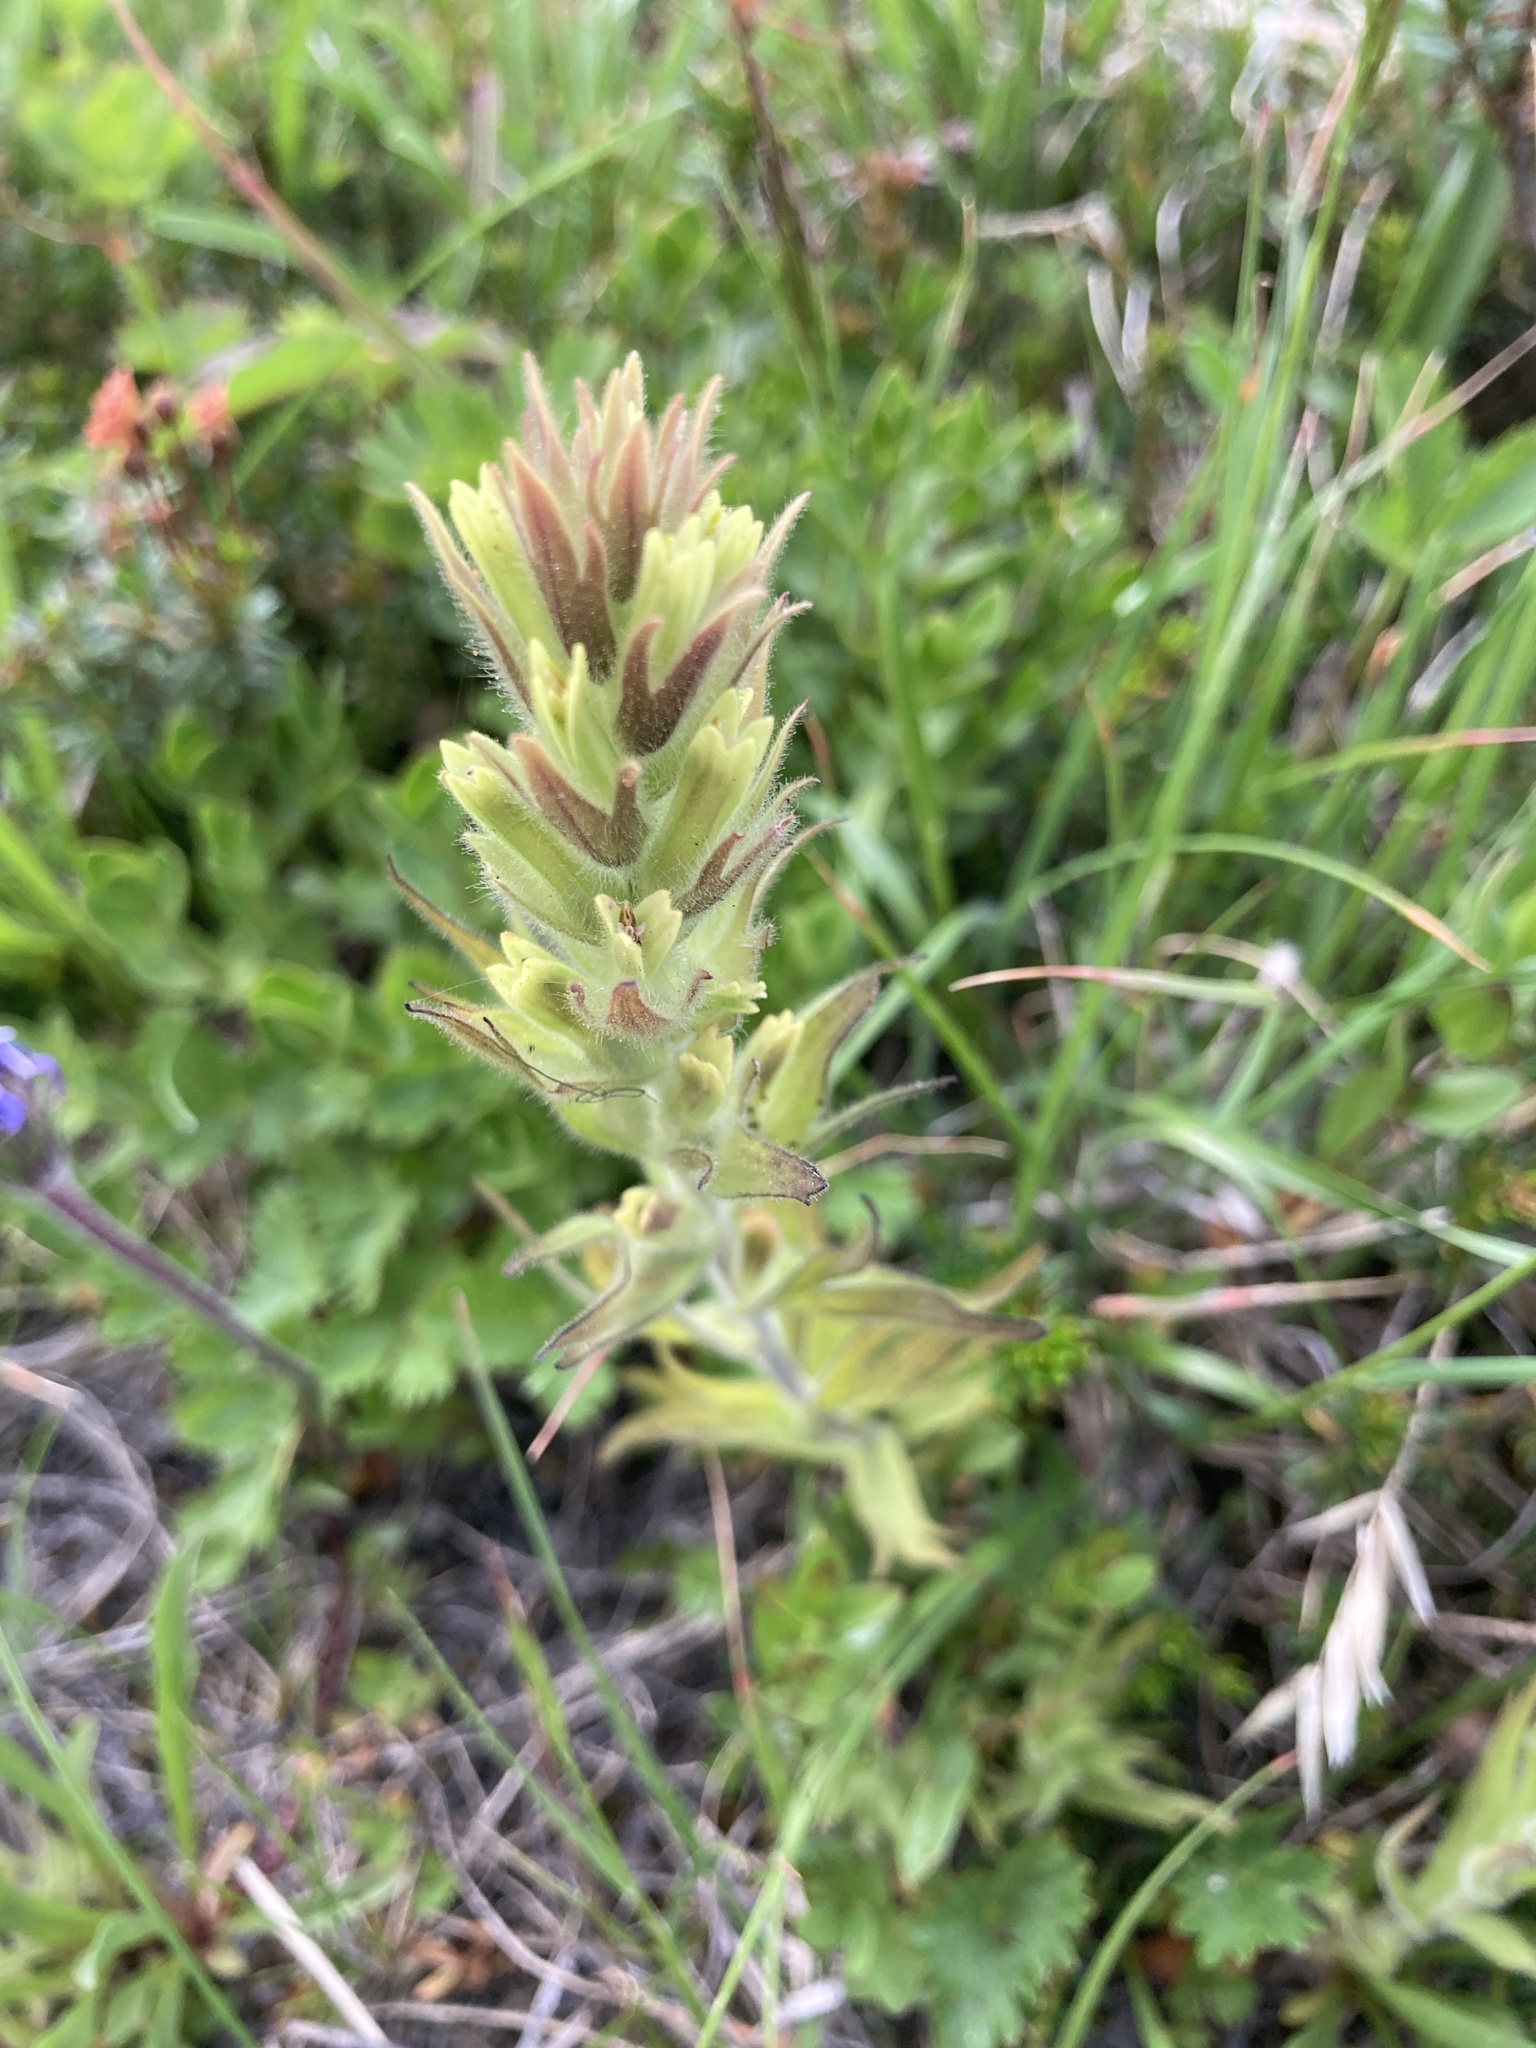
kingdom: Plantae
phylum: Tracheophyta
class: Magnoliopsida
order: Lamiales
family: Orobanchaceae
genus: Castilleja
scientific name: Castilleja cryptantha
